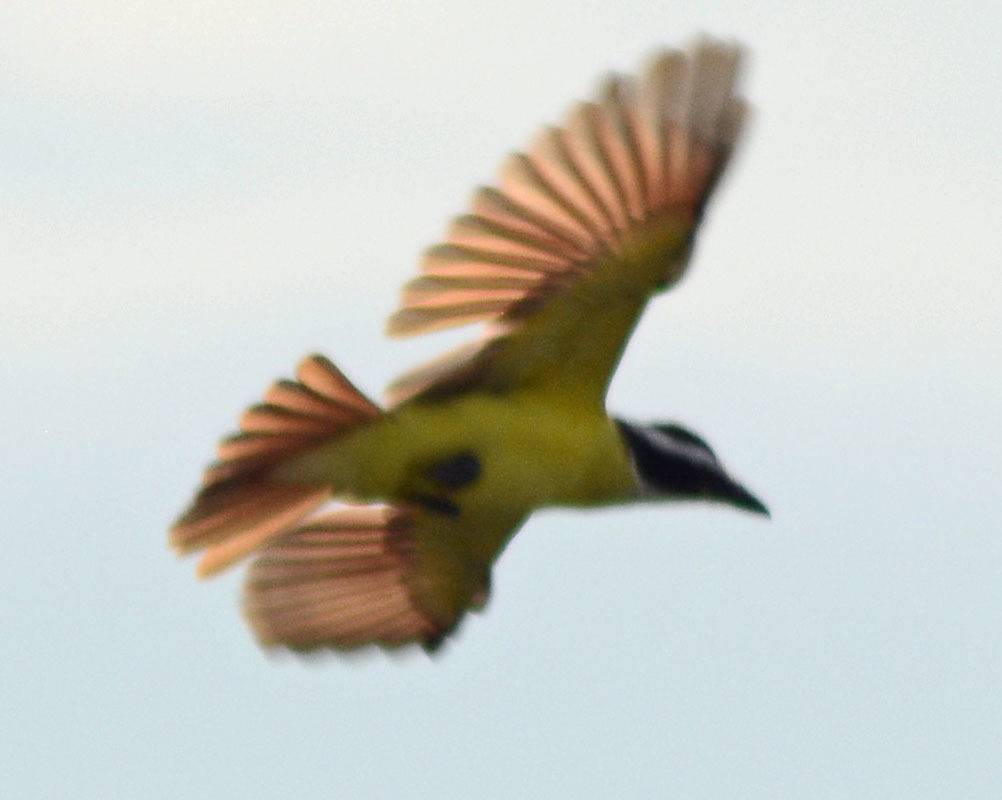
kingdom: Animalia
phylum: Chordata
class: Aves
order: Passeriformes
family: Tyrannidae
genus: Pitangus
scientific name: Pitangus sulphuratus
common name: Great kiskadee
